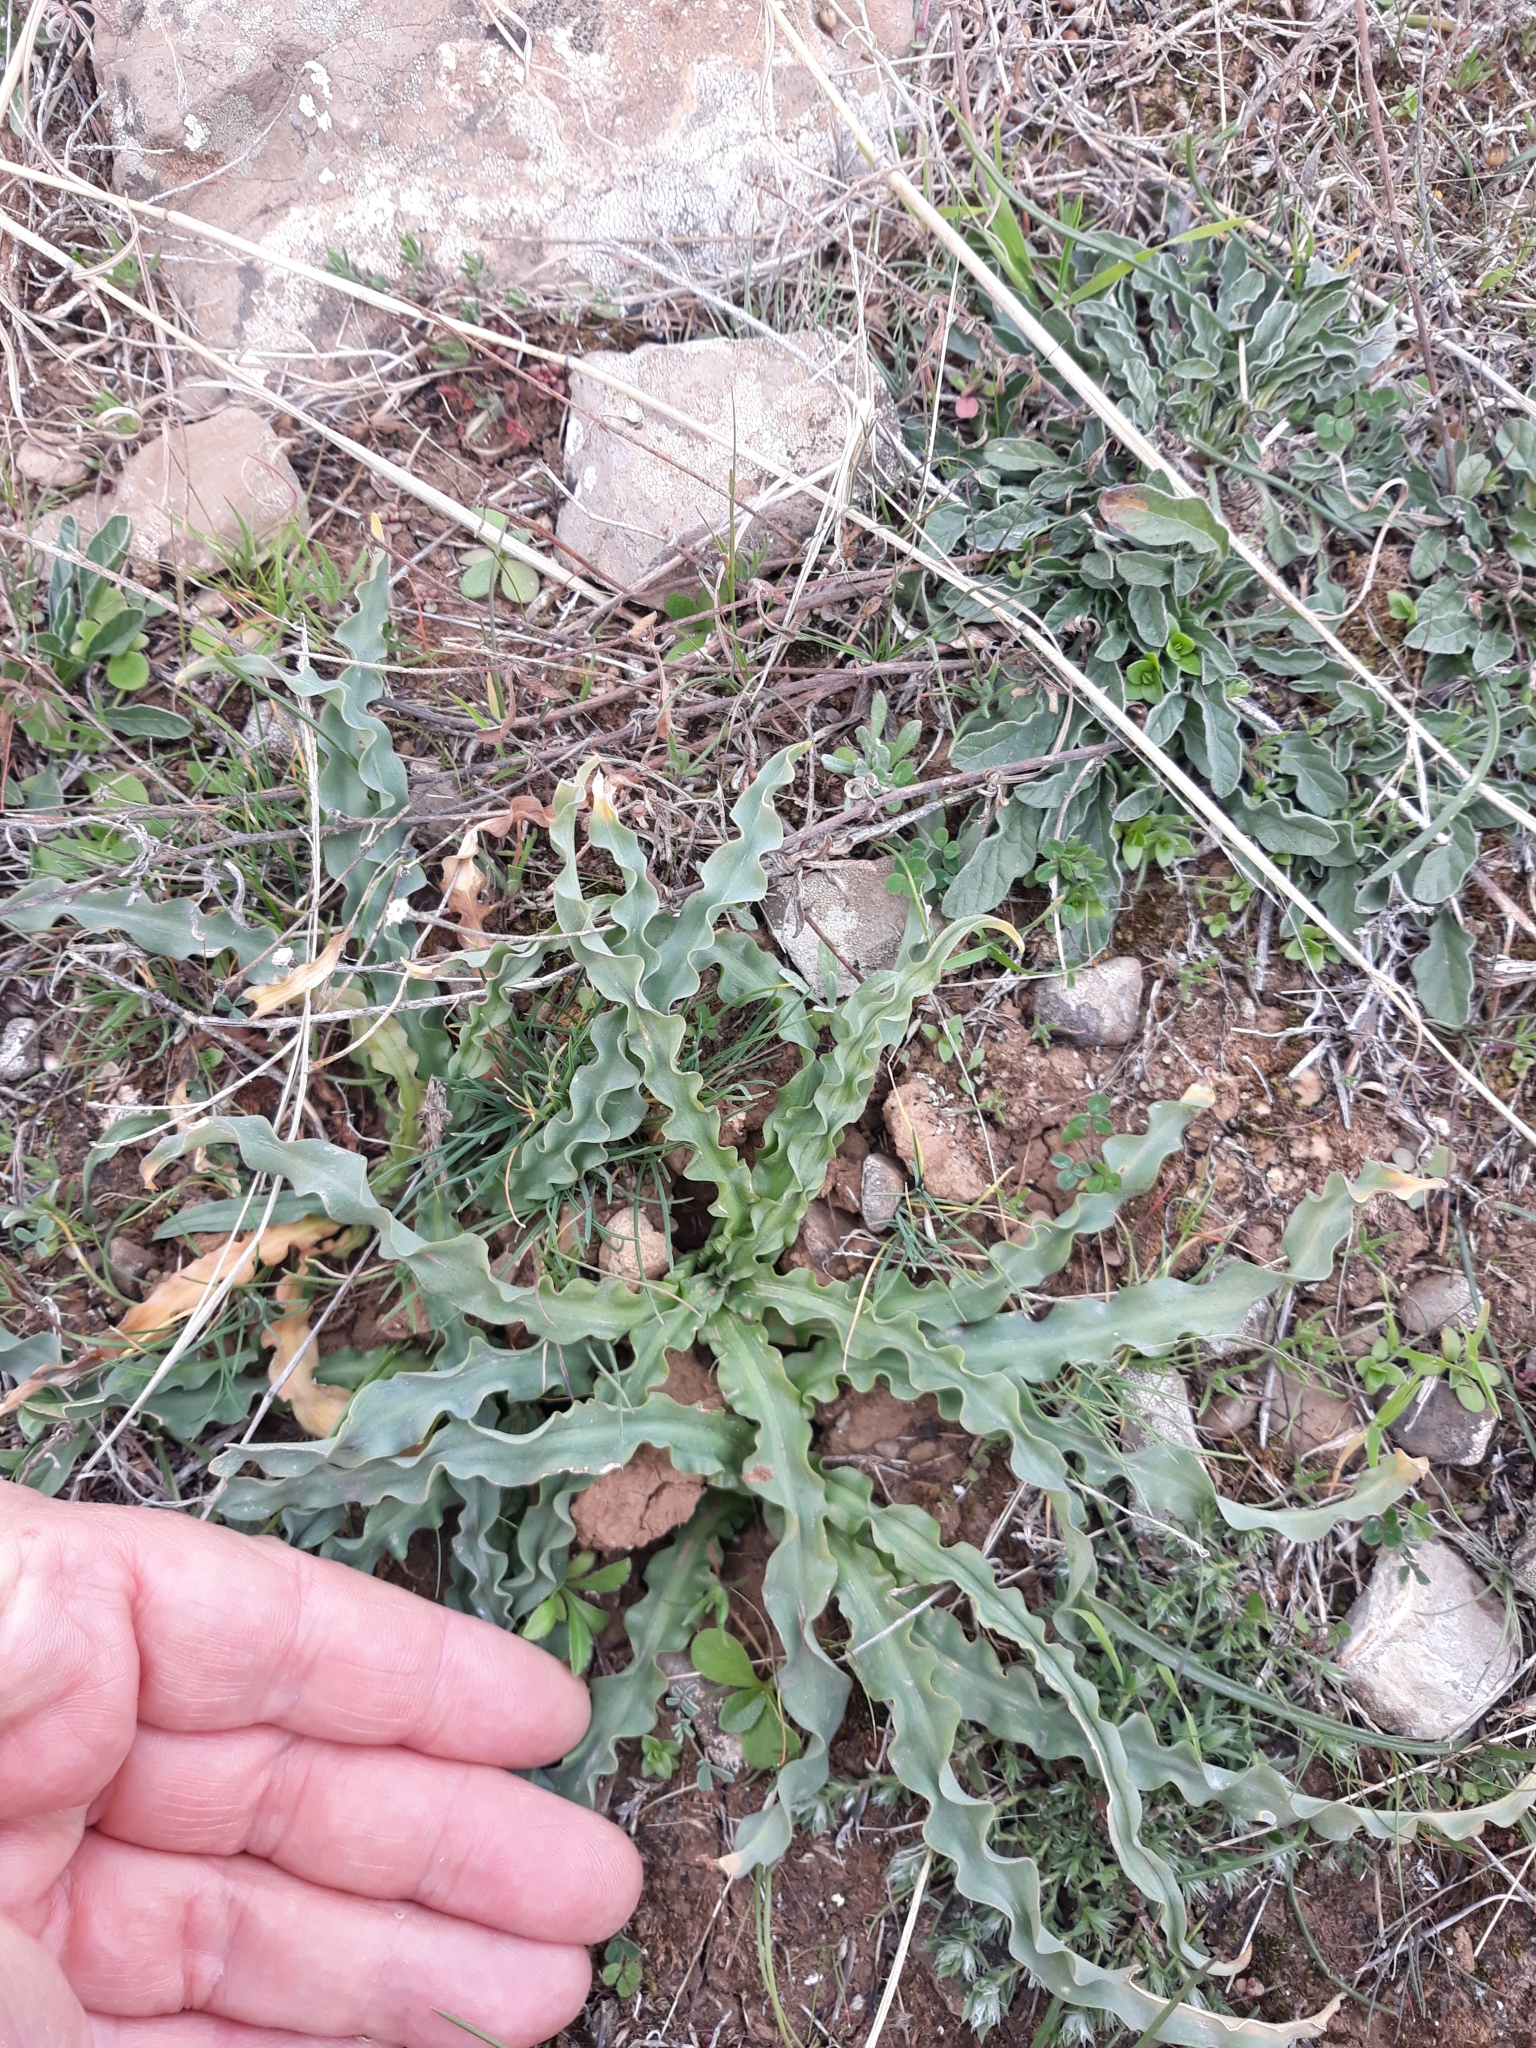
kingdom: Plantae
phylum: Tracheophyta
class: Liliopsida
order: Asparagales
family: Asparagaceae
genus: Drimia
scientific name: Drimia purpurascens
